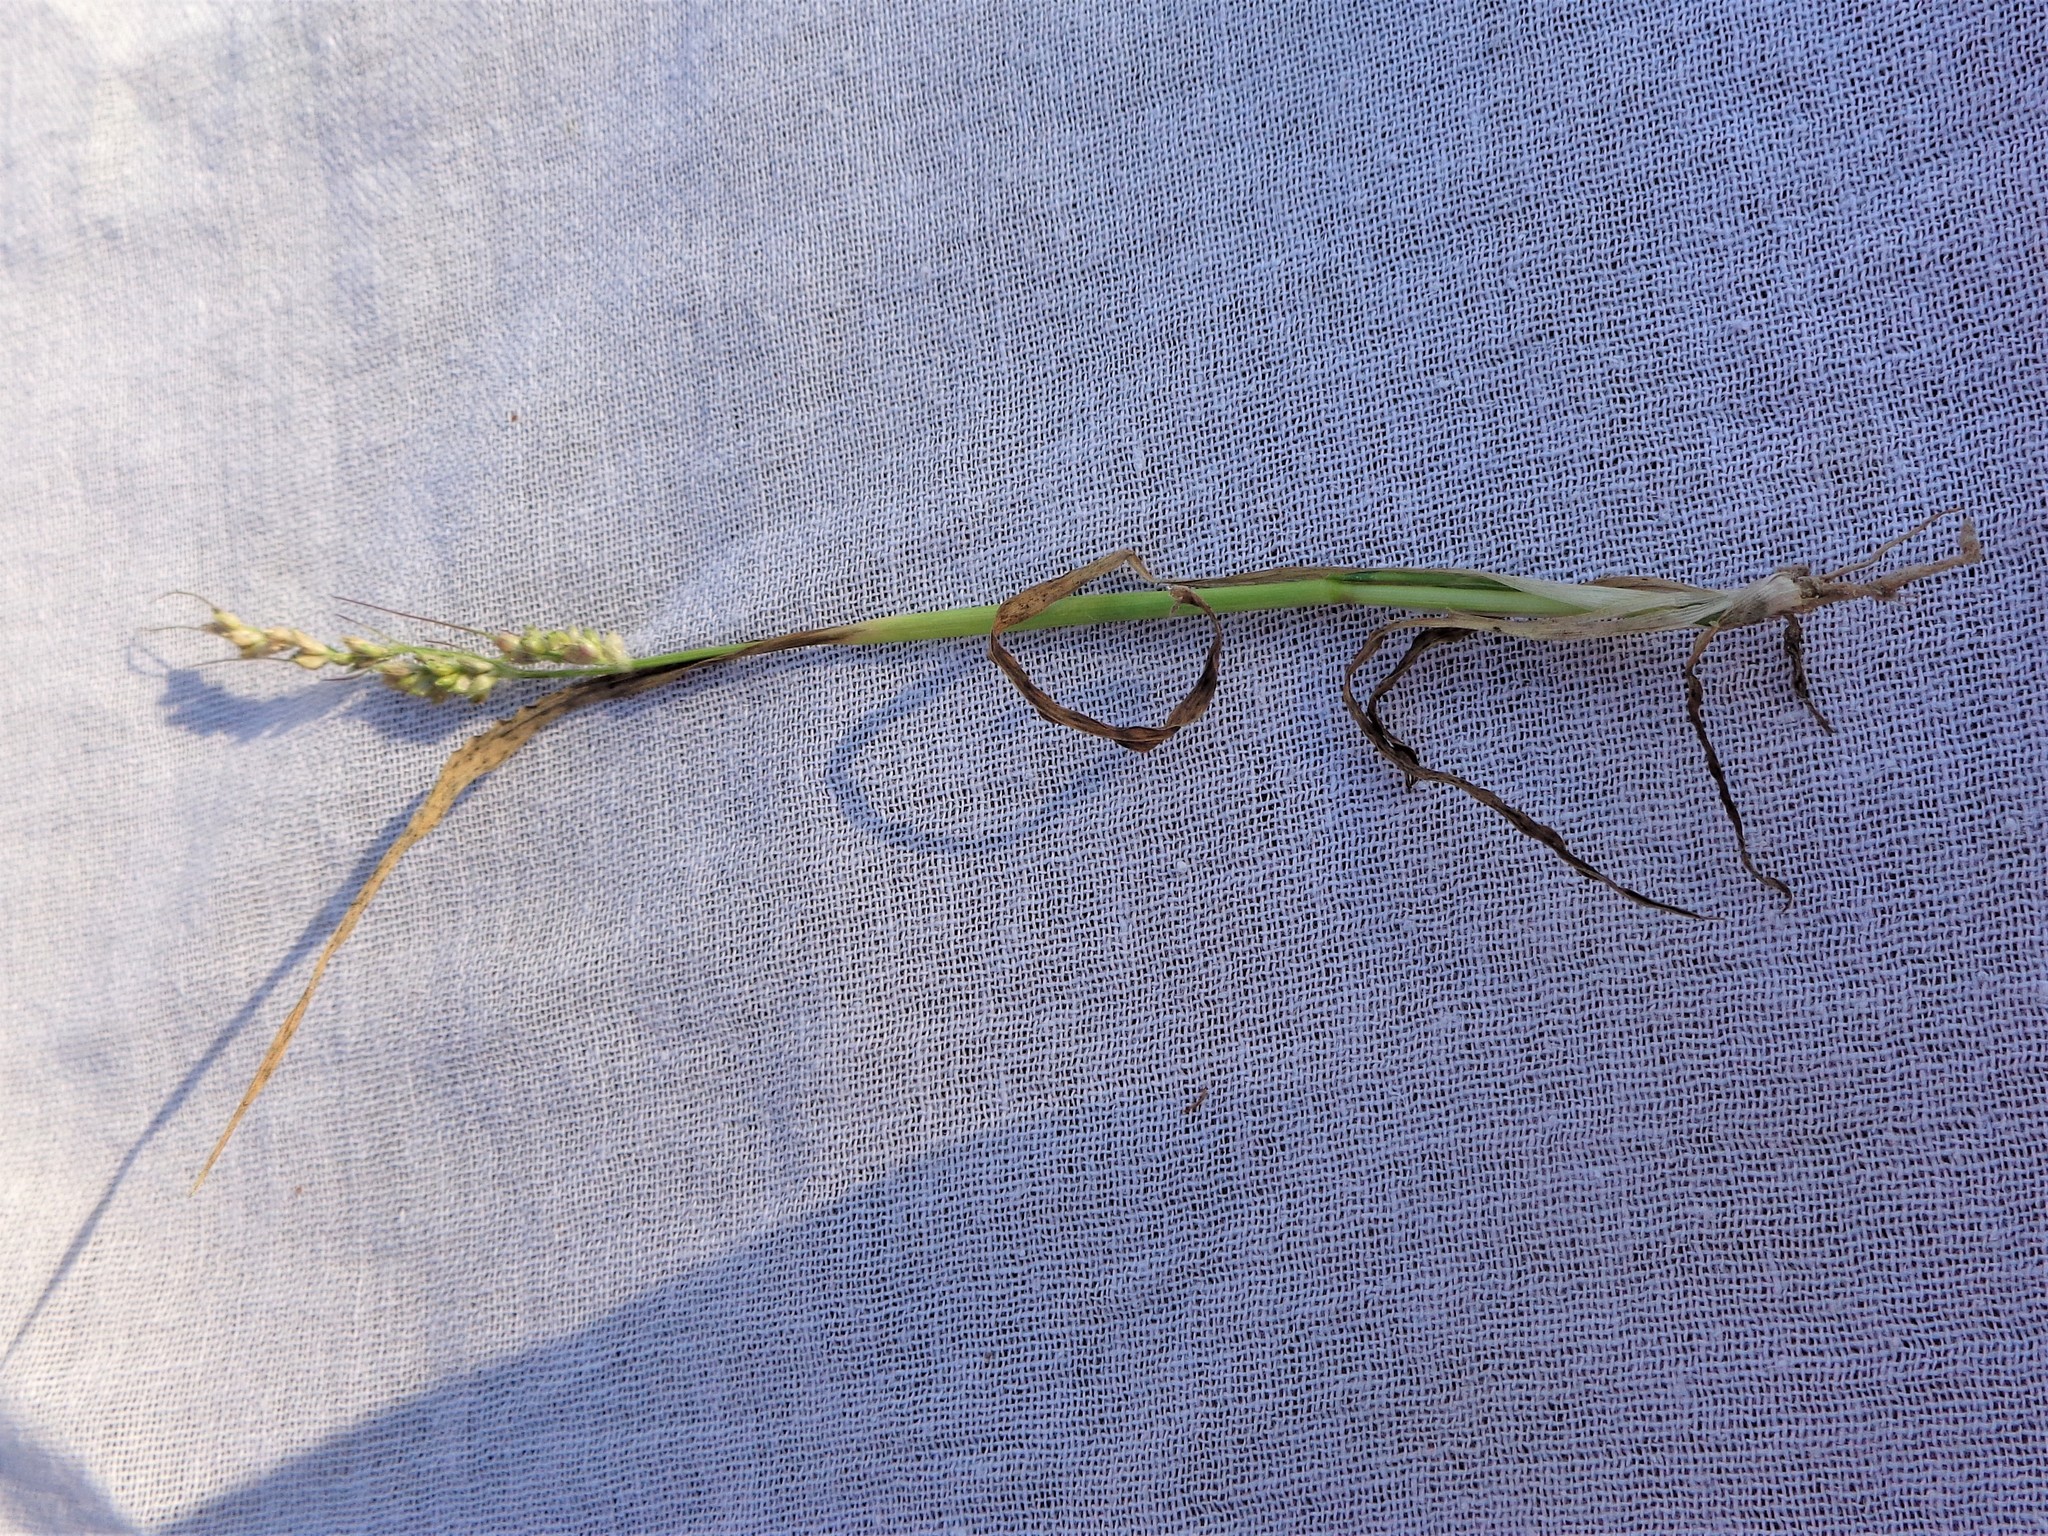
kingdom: Plantae
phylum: Tracheophyta
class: Liliopsida
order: Poales
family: Poaceae
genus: Echinochloa
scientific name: Echinochloa crus-galli
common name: Cockspur
